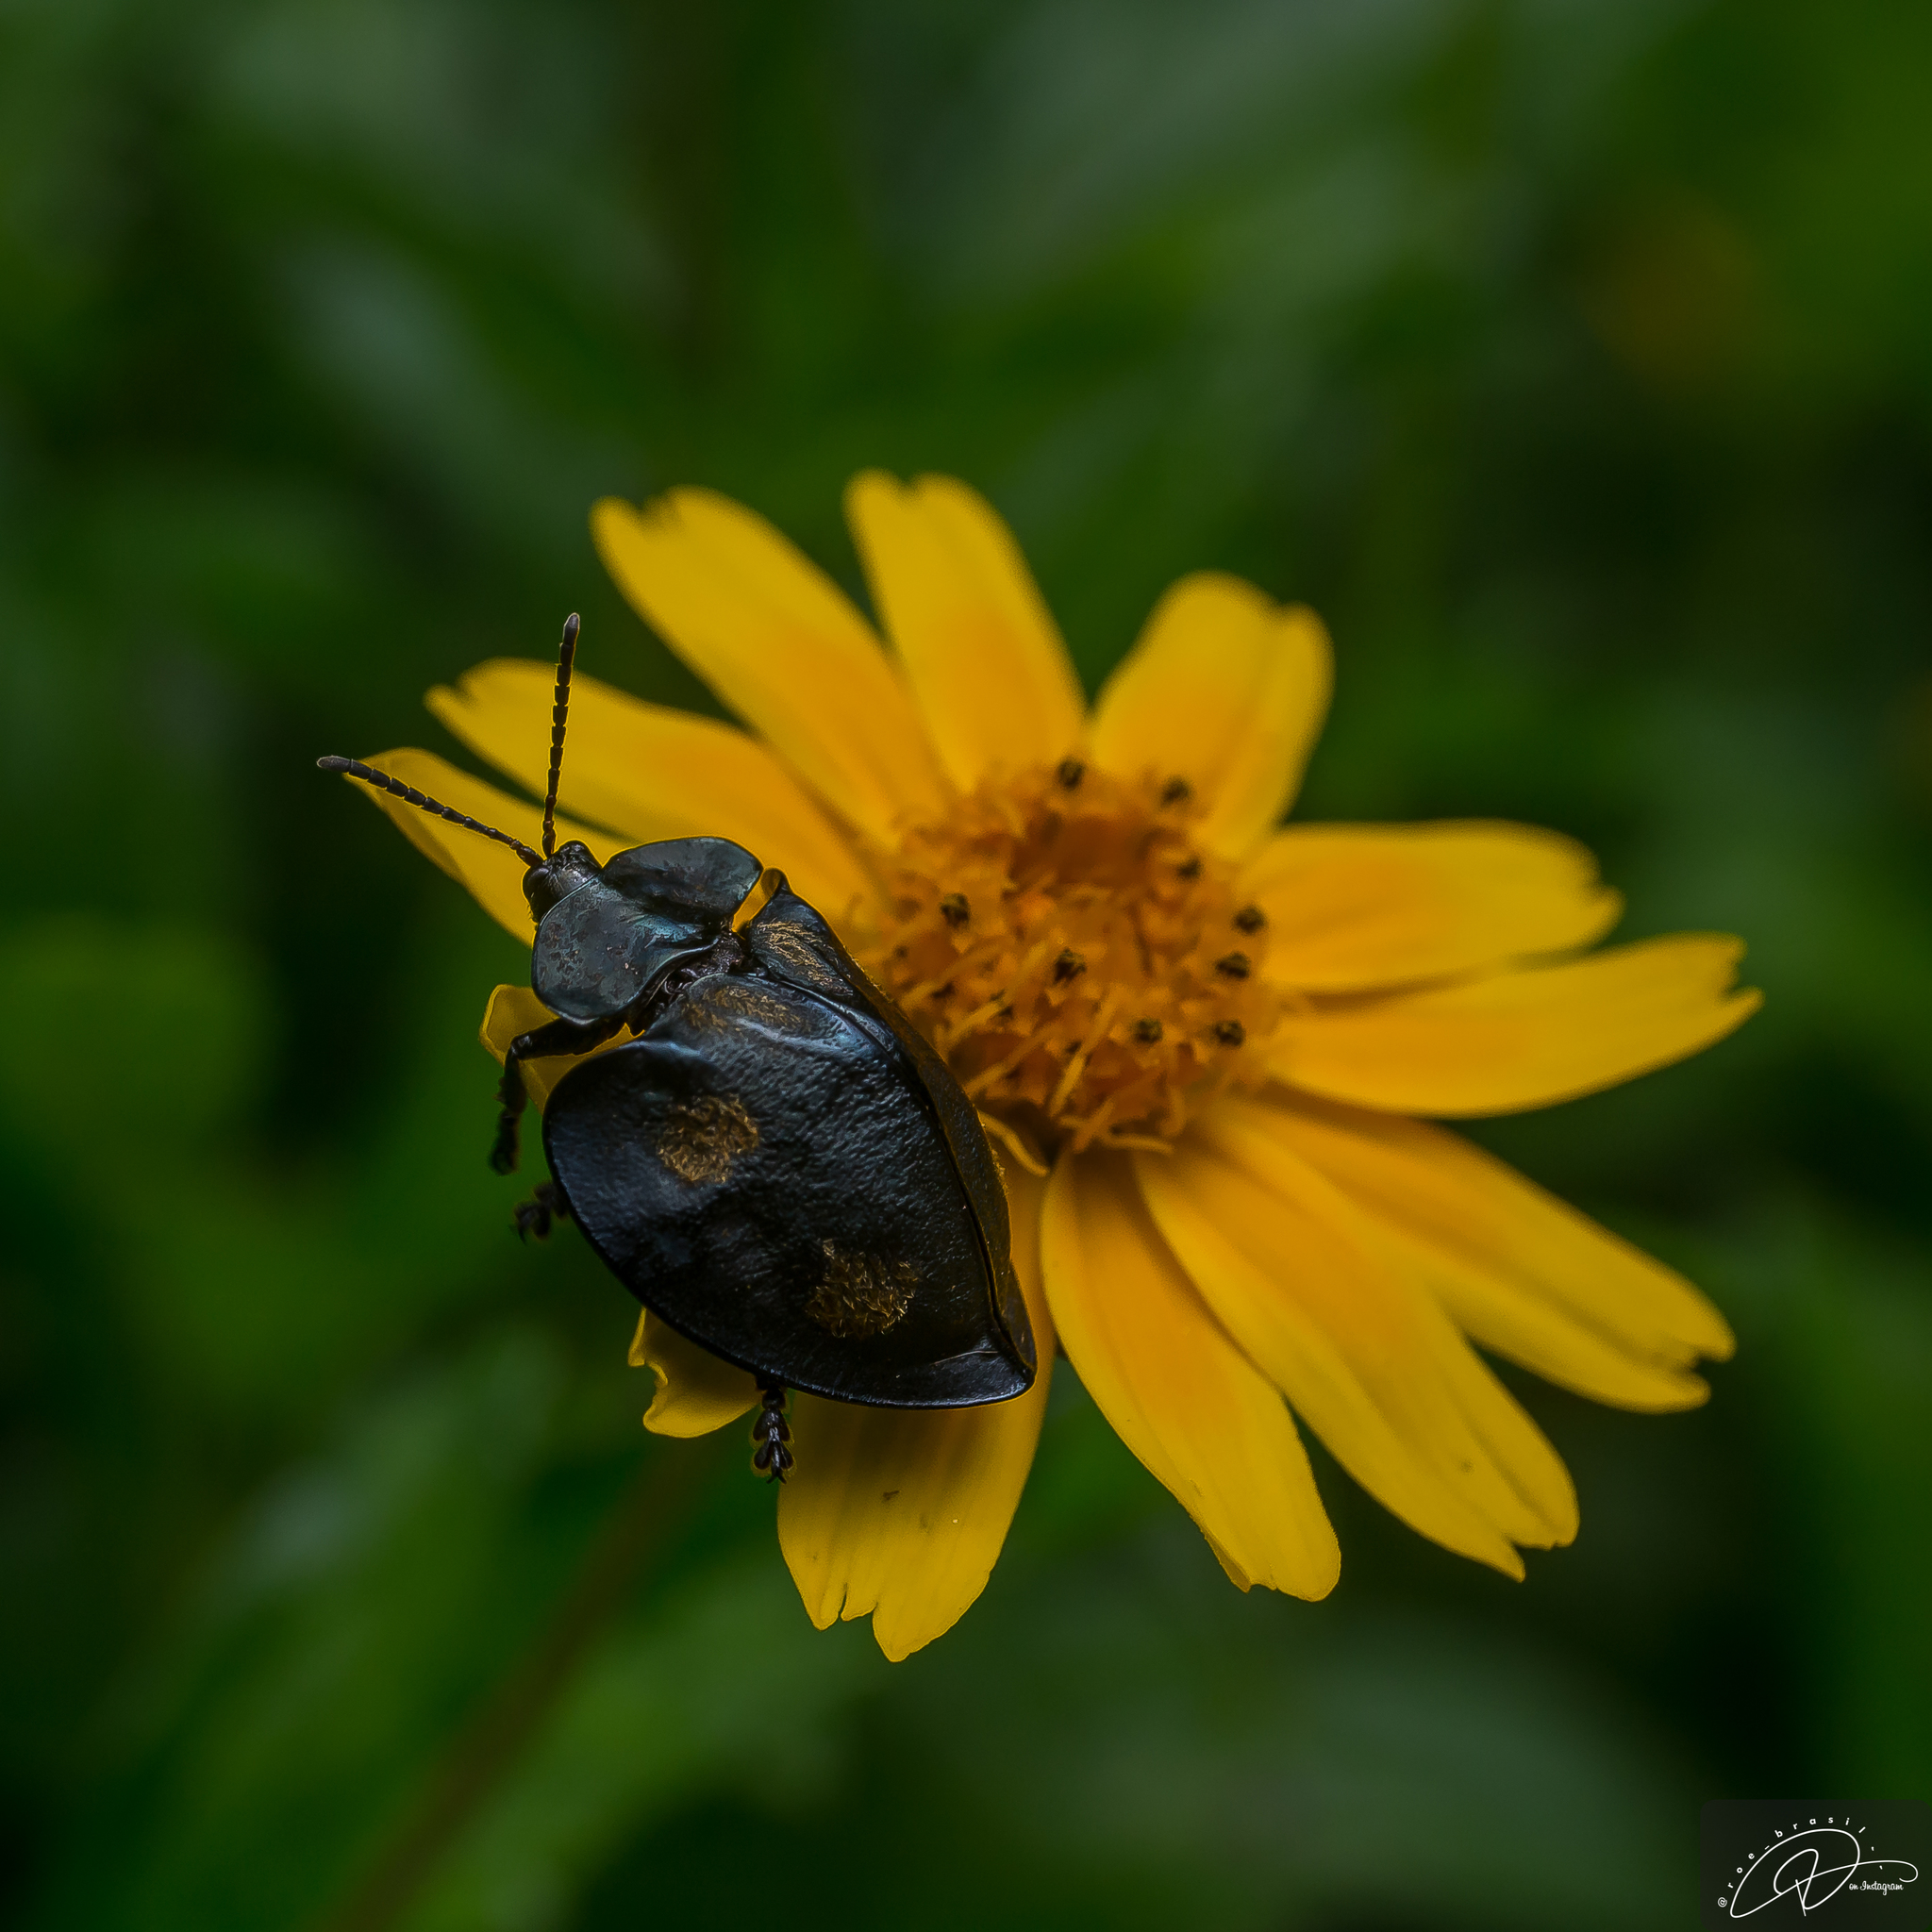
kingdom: Animalia
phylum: Arthropoda
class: Insecta
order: Coleoptera
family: Chrysomelidae
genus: Stolas
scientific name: Stolas impluviata
